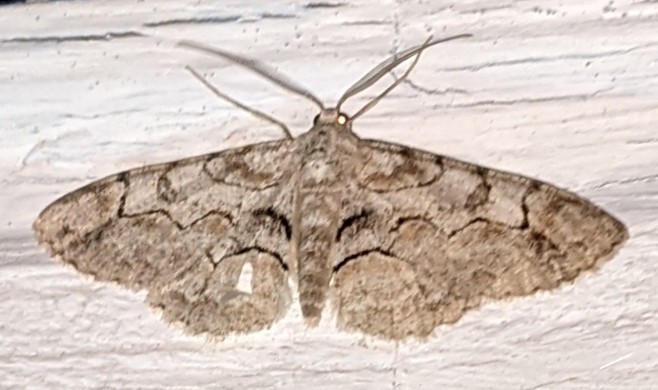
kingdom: Animalia
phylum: Arthropoda
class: Insecta
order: Lepidoptera
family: Geometridae
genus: Iridopsis
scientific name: Iridopsis larvaria
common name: Bent-line gray
